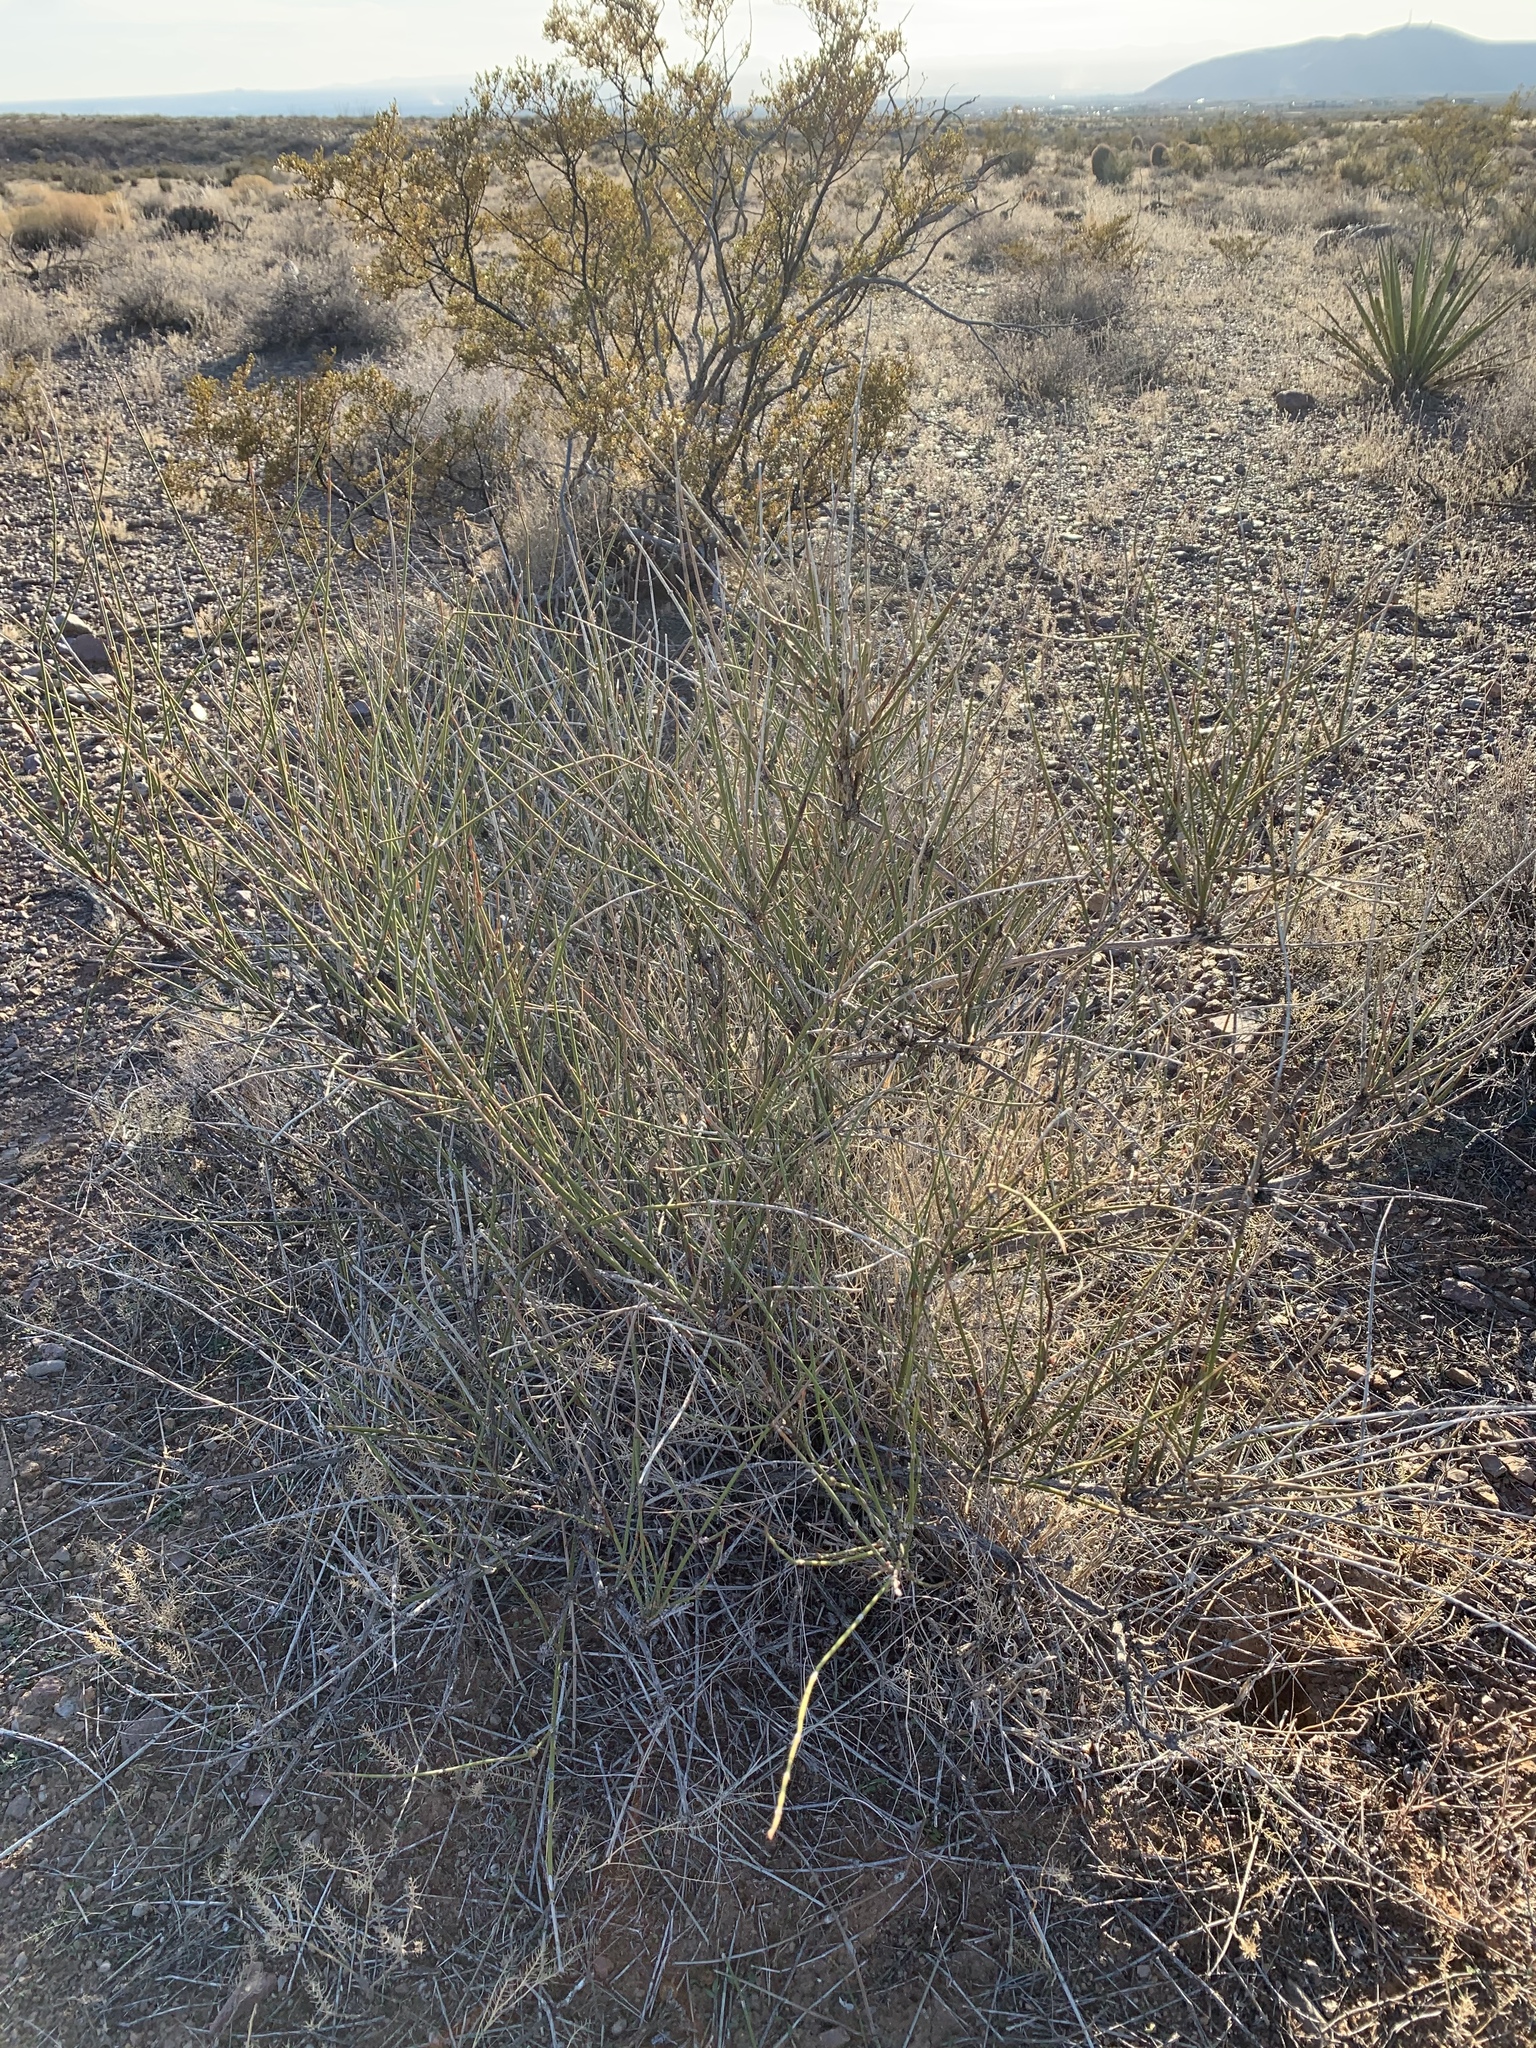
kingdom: Plantae
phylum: Tracheophyta
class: Gnetopsida
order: Ephedrales
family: Ephedraceae
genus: Ephedra
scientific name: Ephedra trifurca
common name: Mexican-tea
